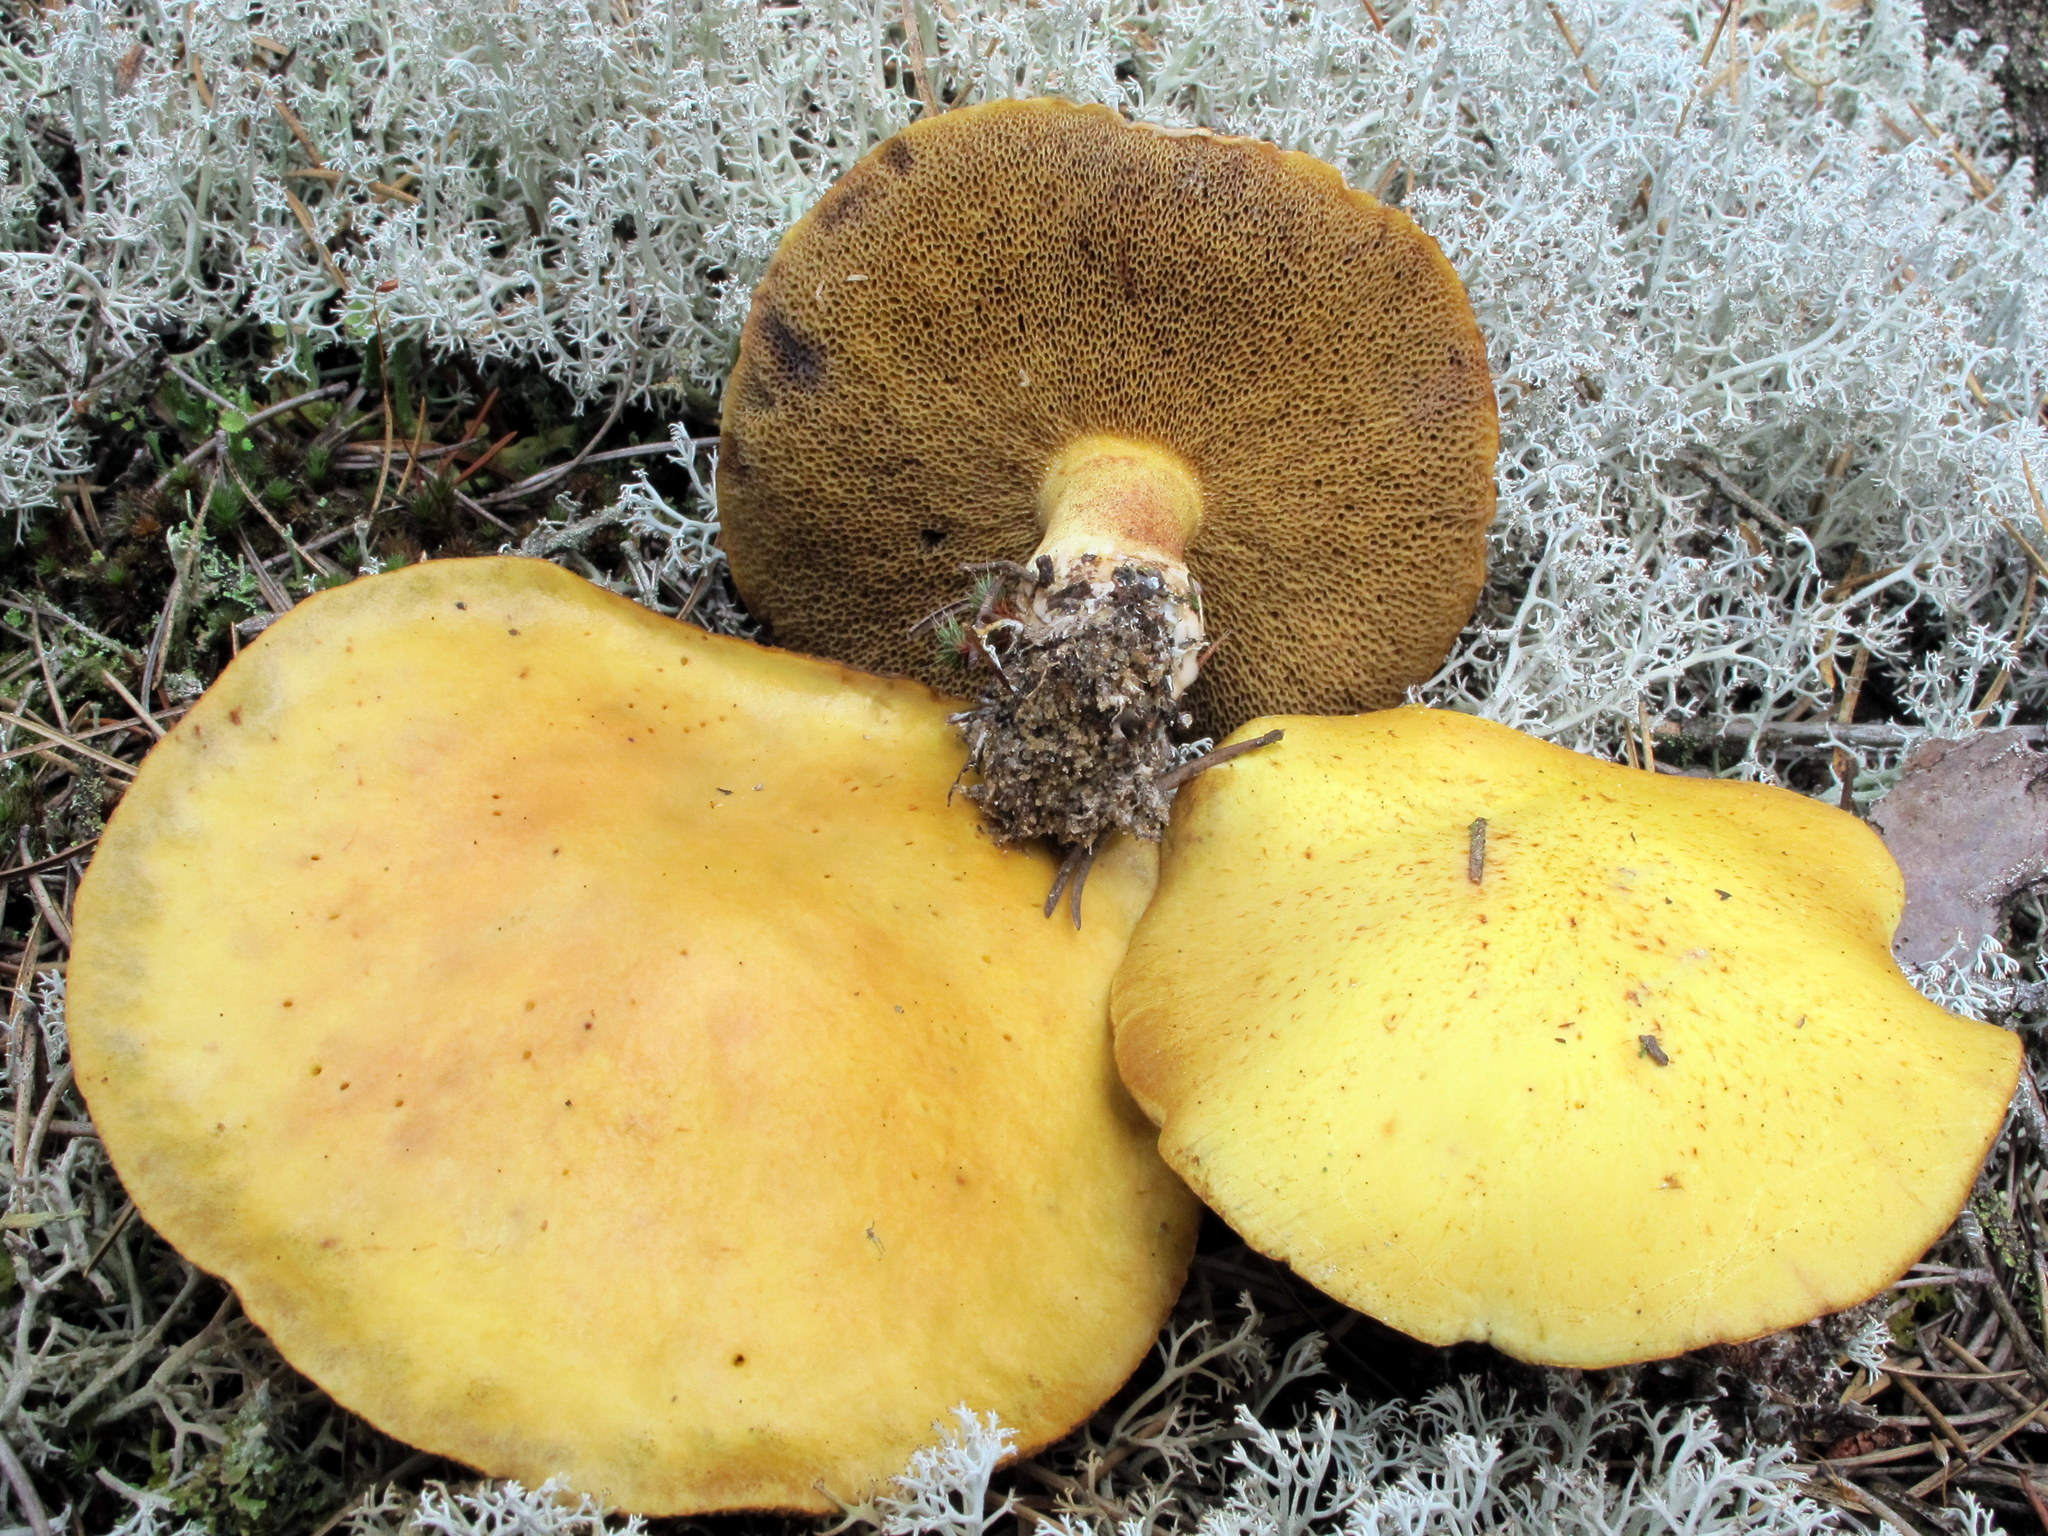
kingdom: Fungi
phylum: Basidiomycota
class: Agaricomycetes
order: Boletales
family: Suillaceae
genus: Suillus
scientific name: Suillus tomentosus
